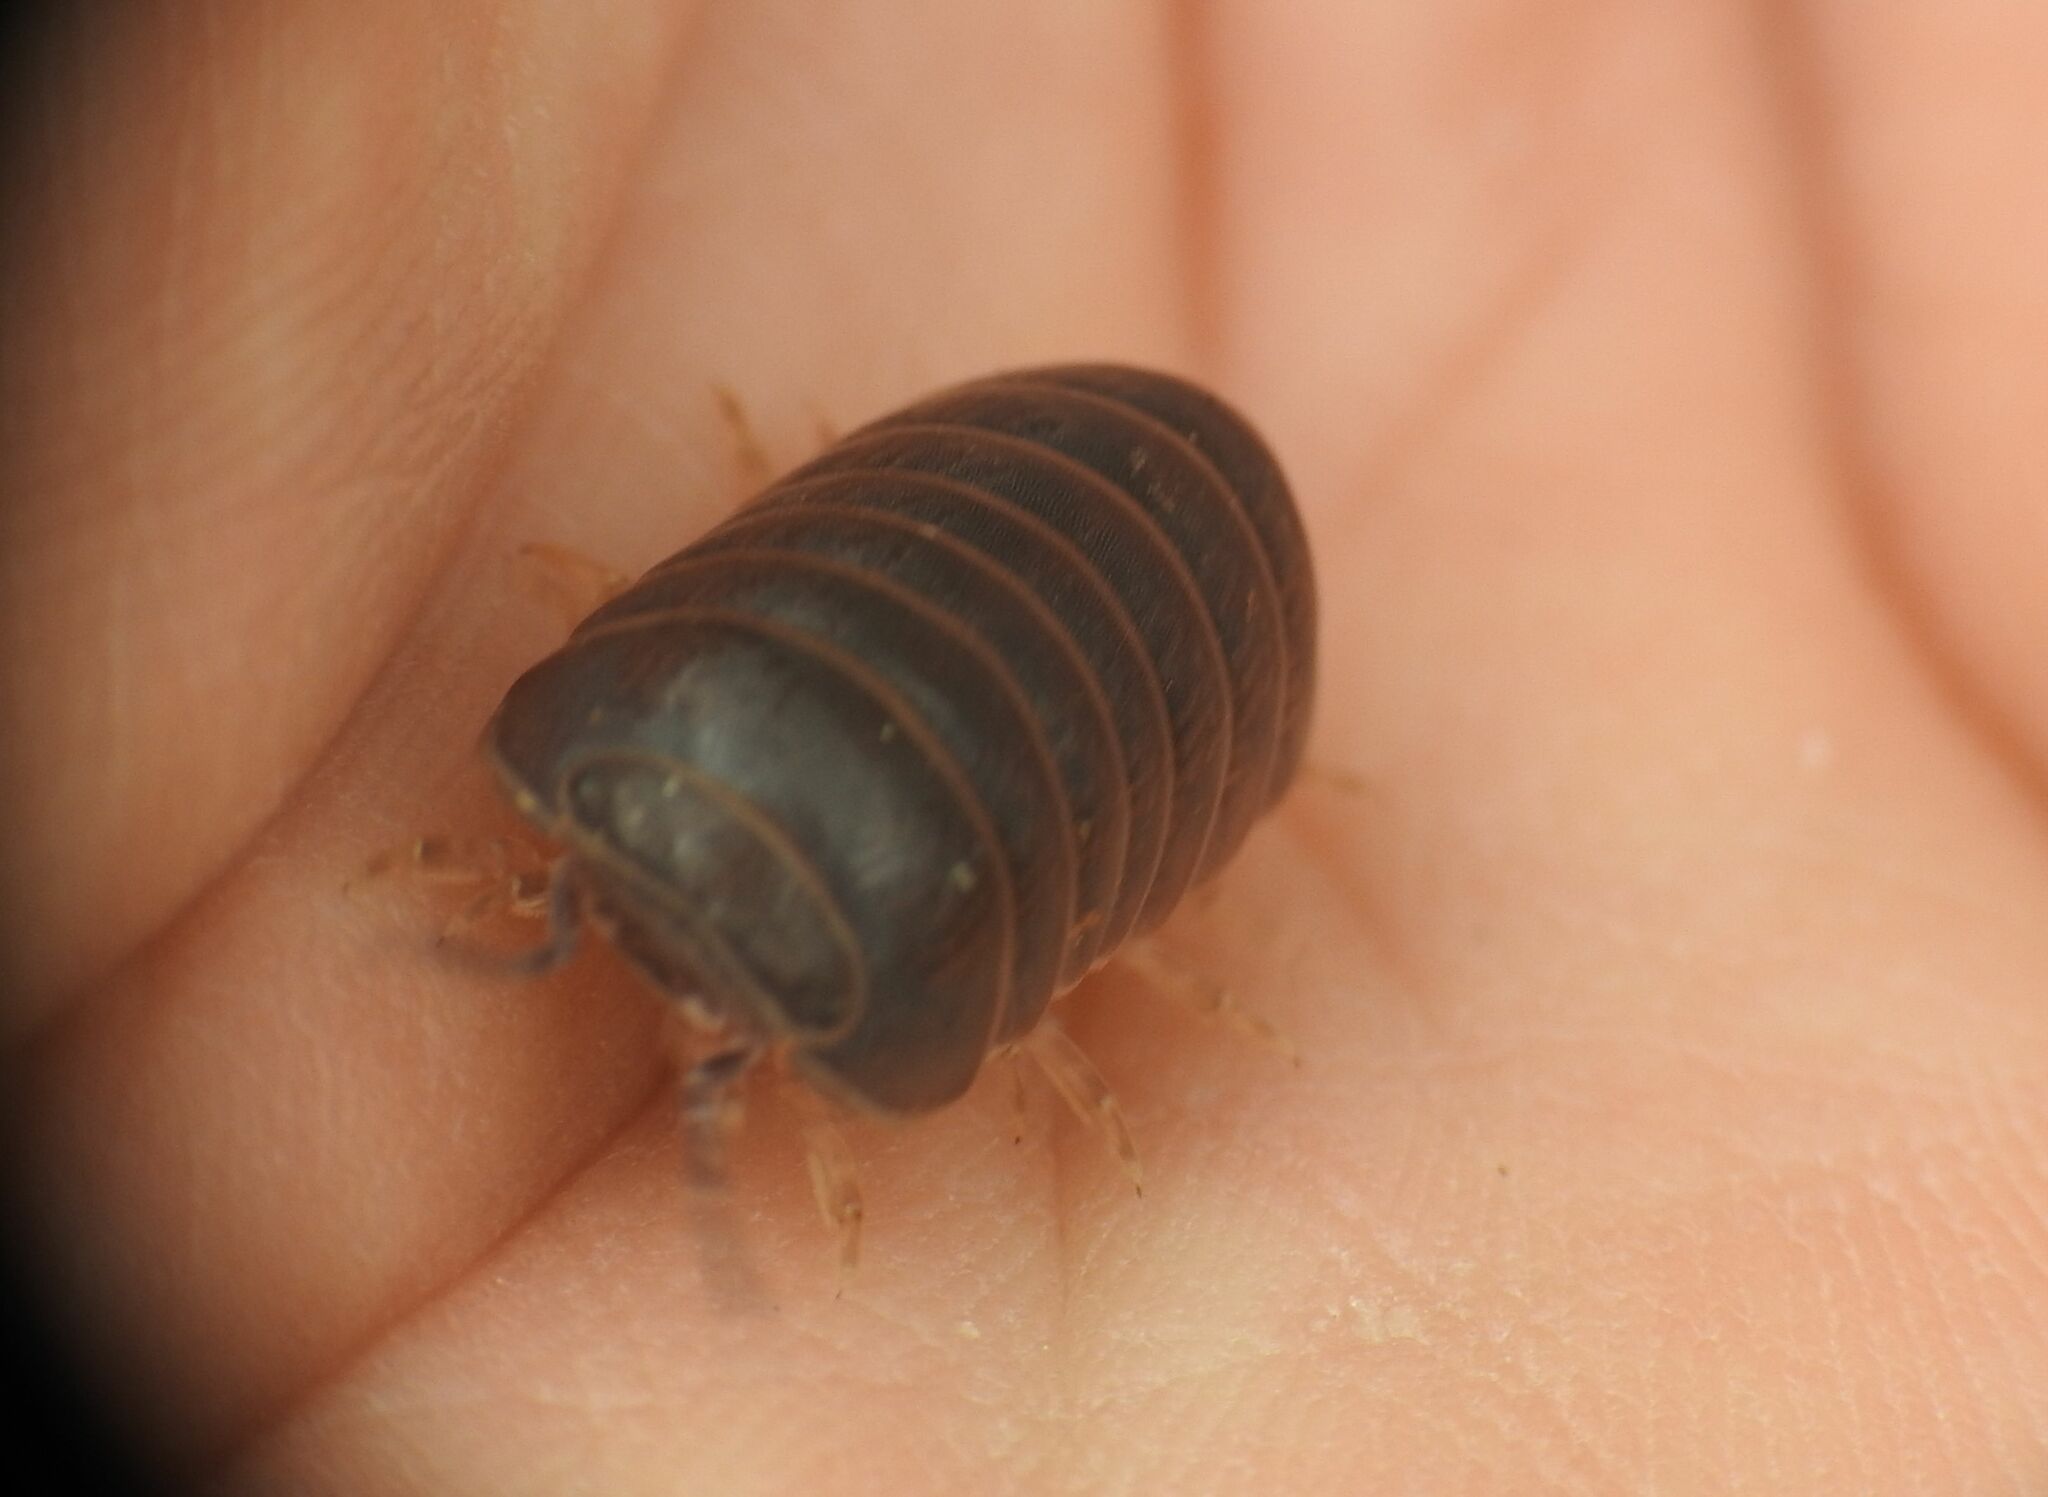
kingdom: Animalia
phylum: Arthropoda
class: Malacostraca
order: Isopoda
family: Armadillidae
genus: Armadillo
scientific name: Armadillo officinalis
